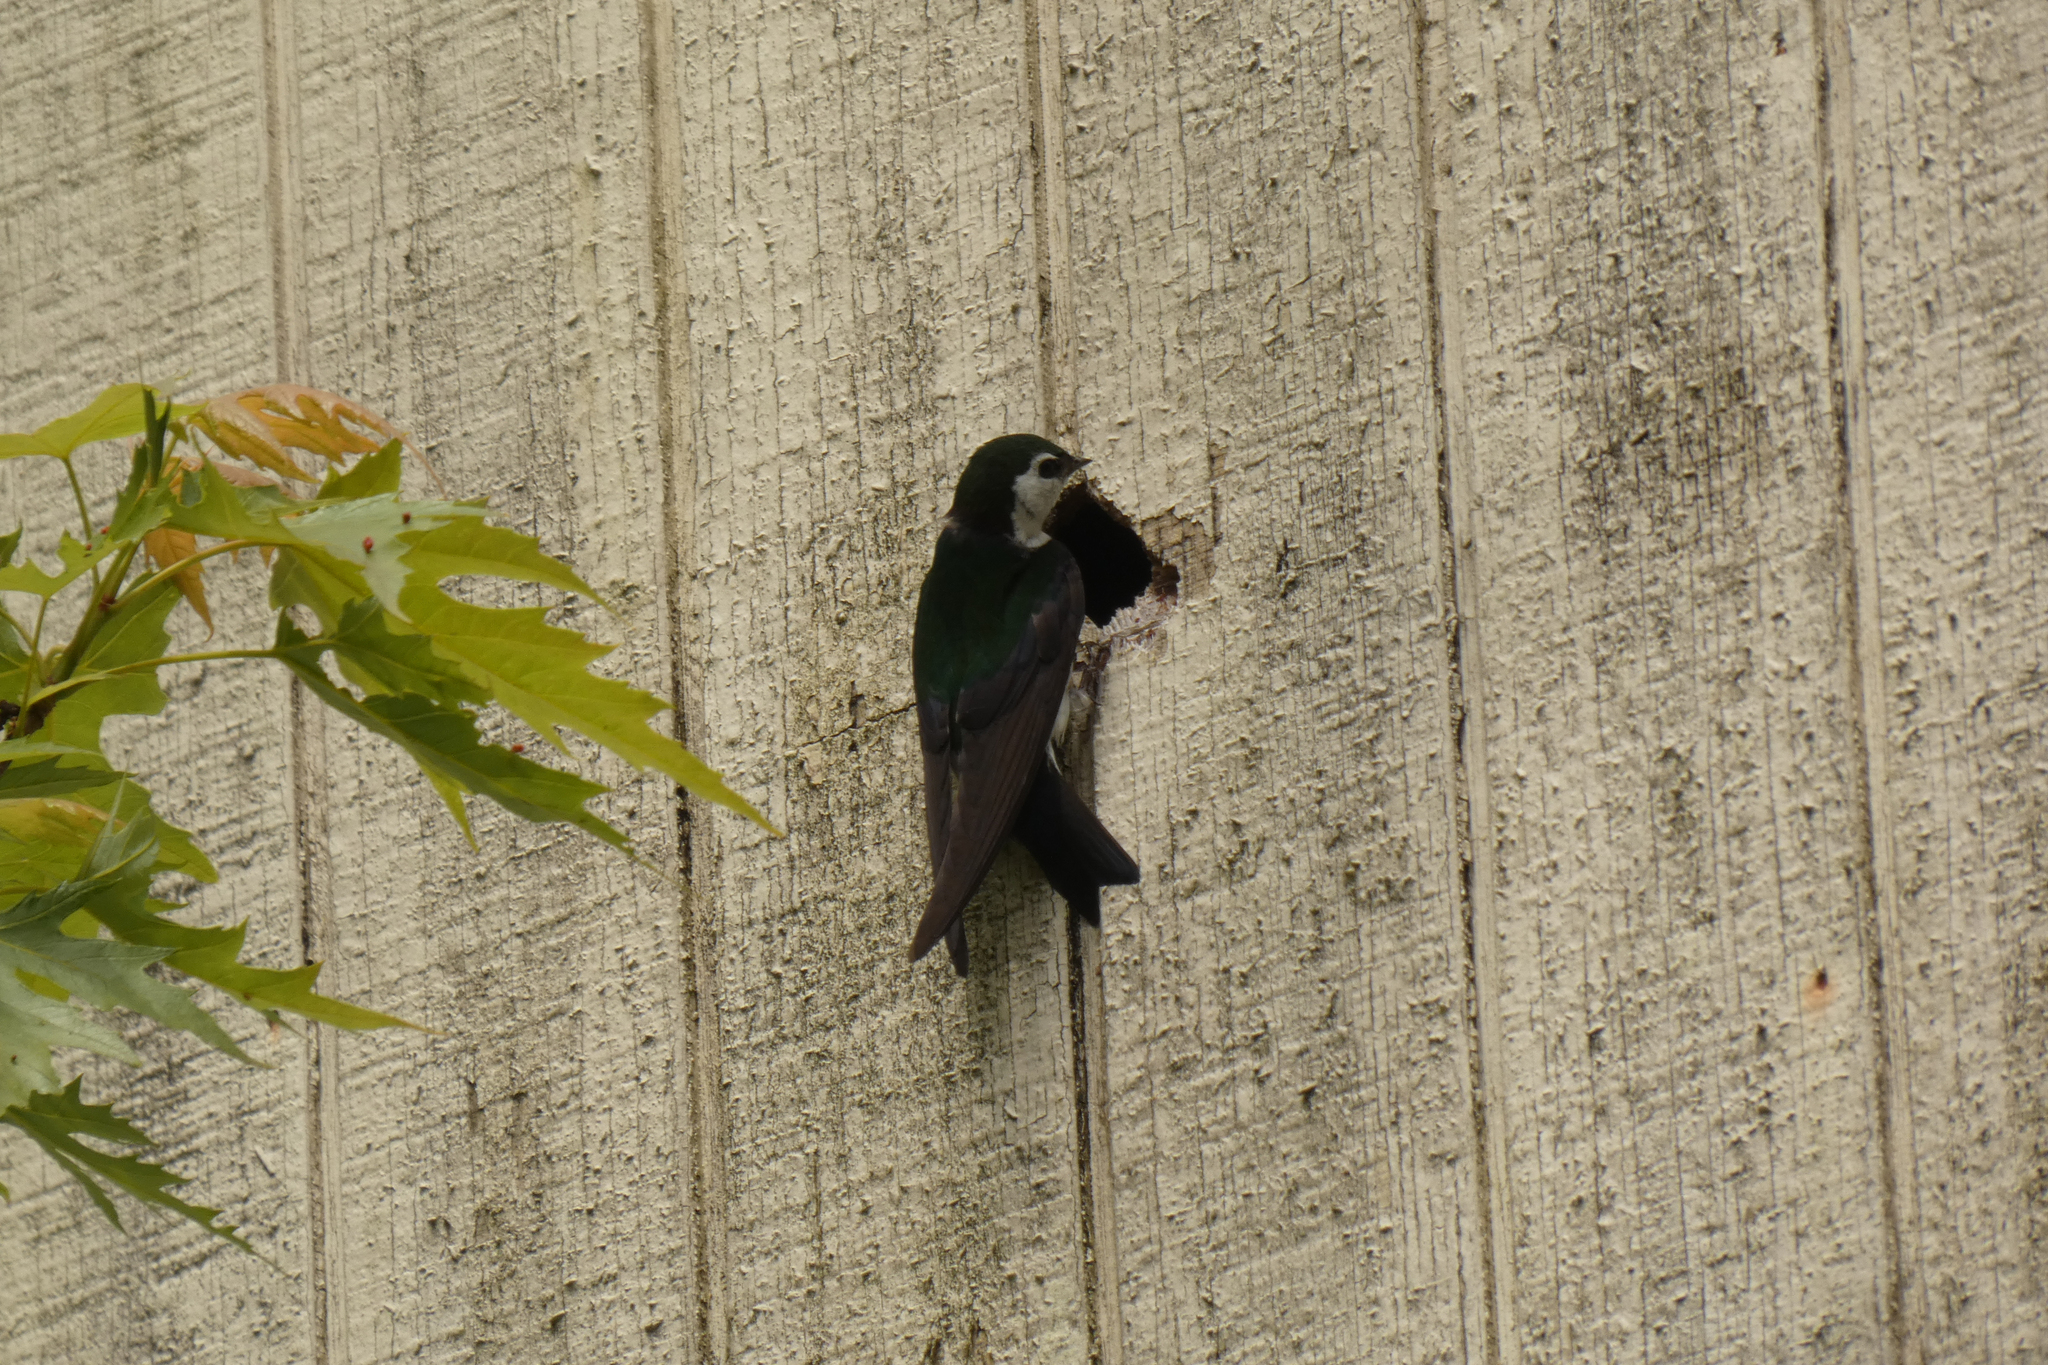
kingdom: Animalia
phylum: Chordata
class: Aves
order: Passeriformes
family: Hirundinidae
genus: Tachycineta
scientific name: Tachycineta thalassina
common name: Violet-green swallow
